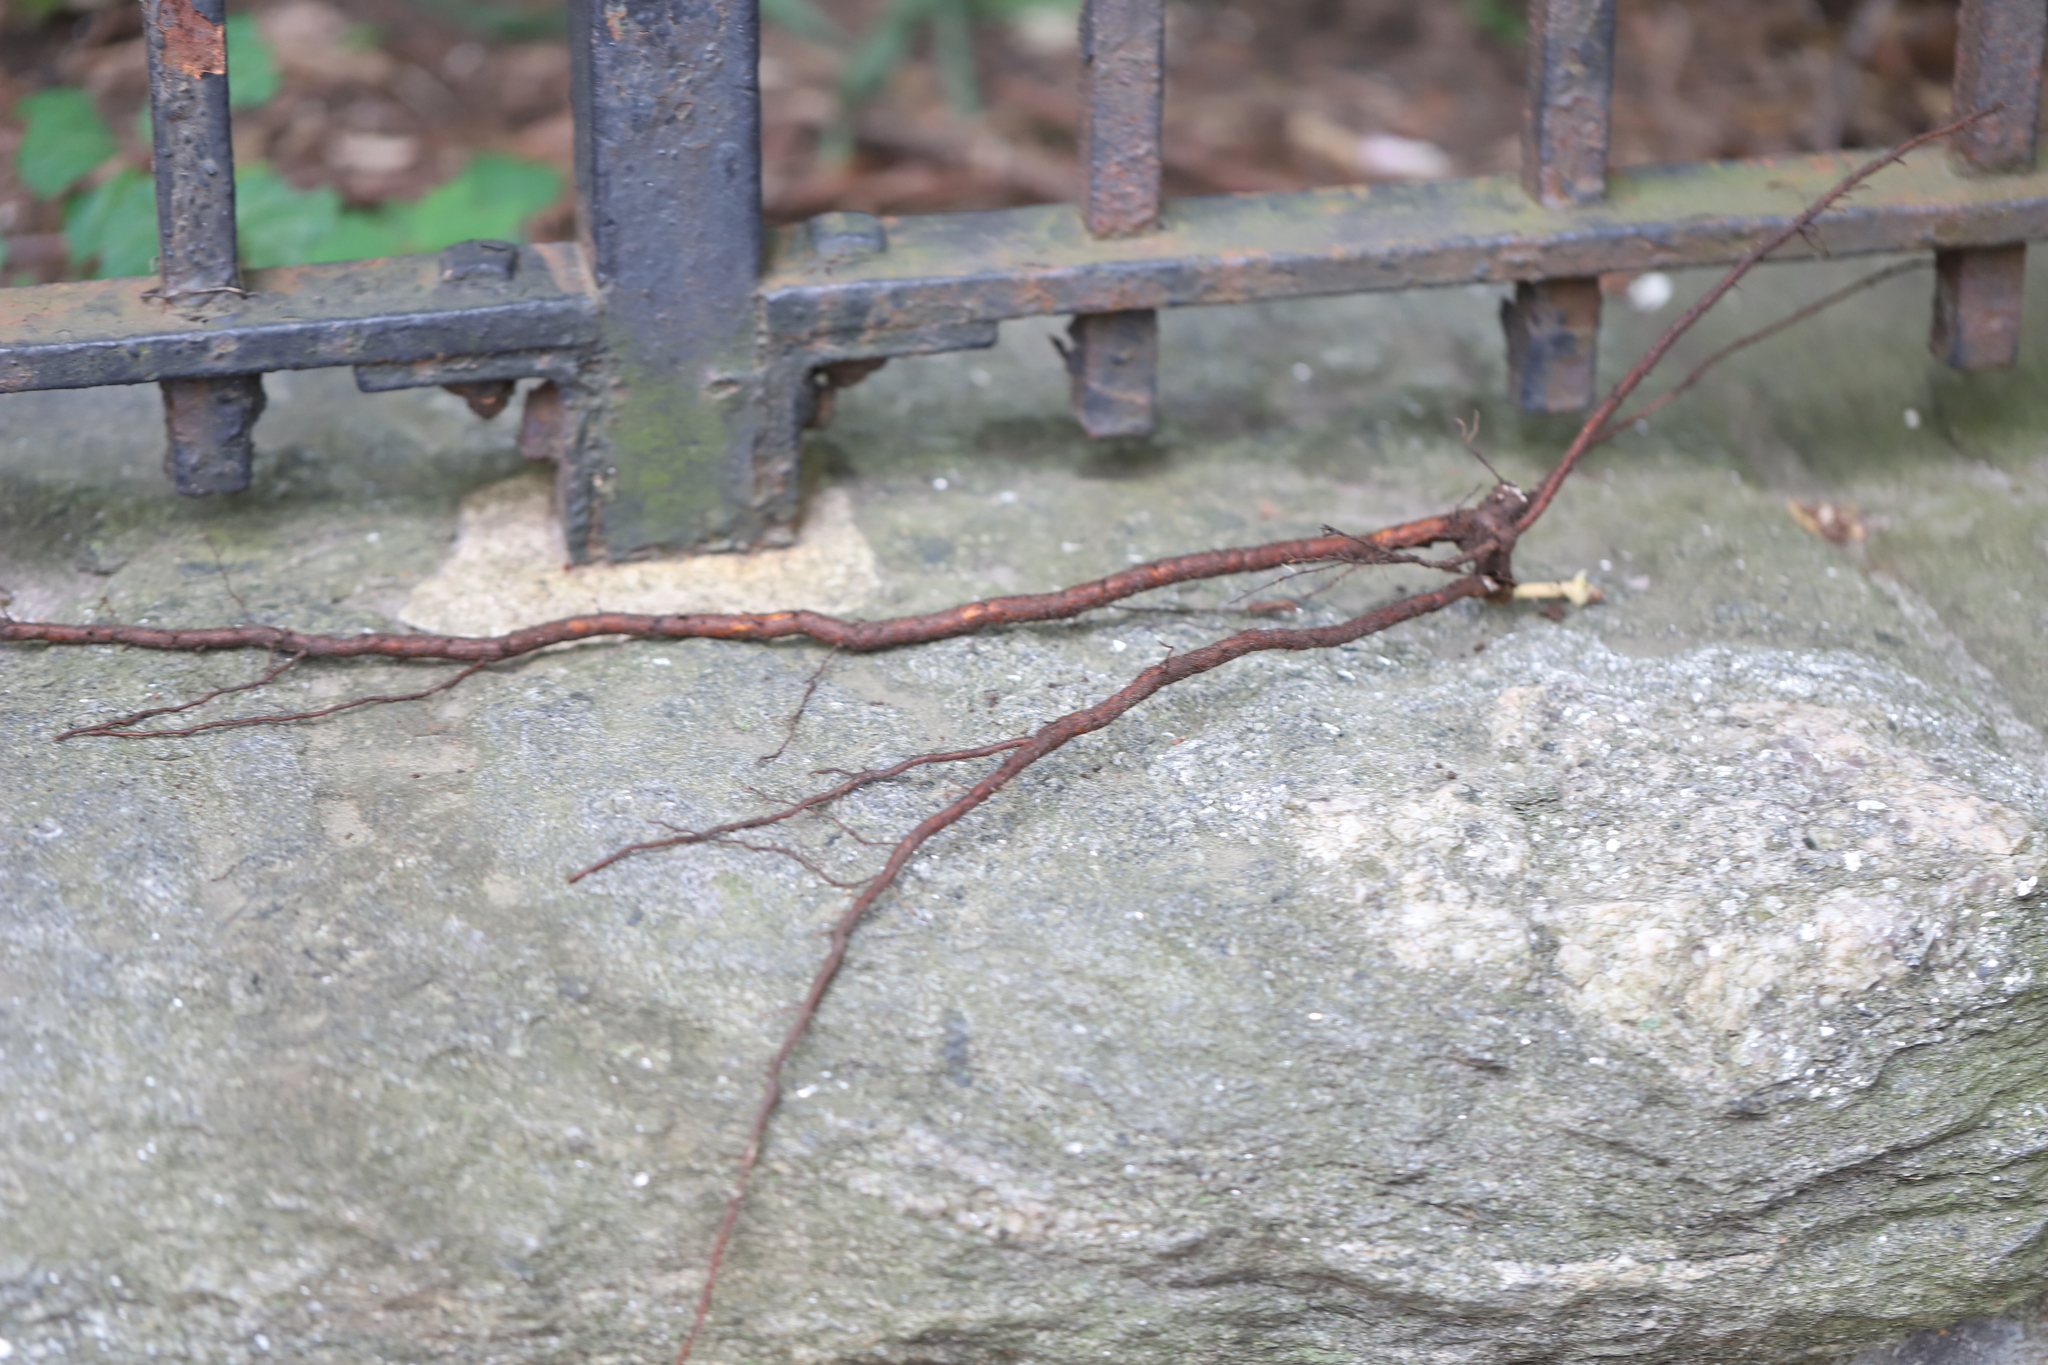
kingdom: Plantae
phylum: Tracheophyta
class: Magnoliopsida
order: Vitales
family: Vitaceae
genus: Ampelopsis
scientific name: Ampelopsis glandulosa
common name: Amur peppervine
